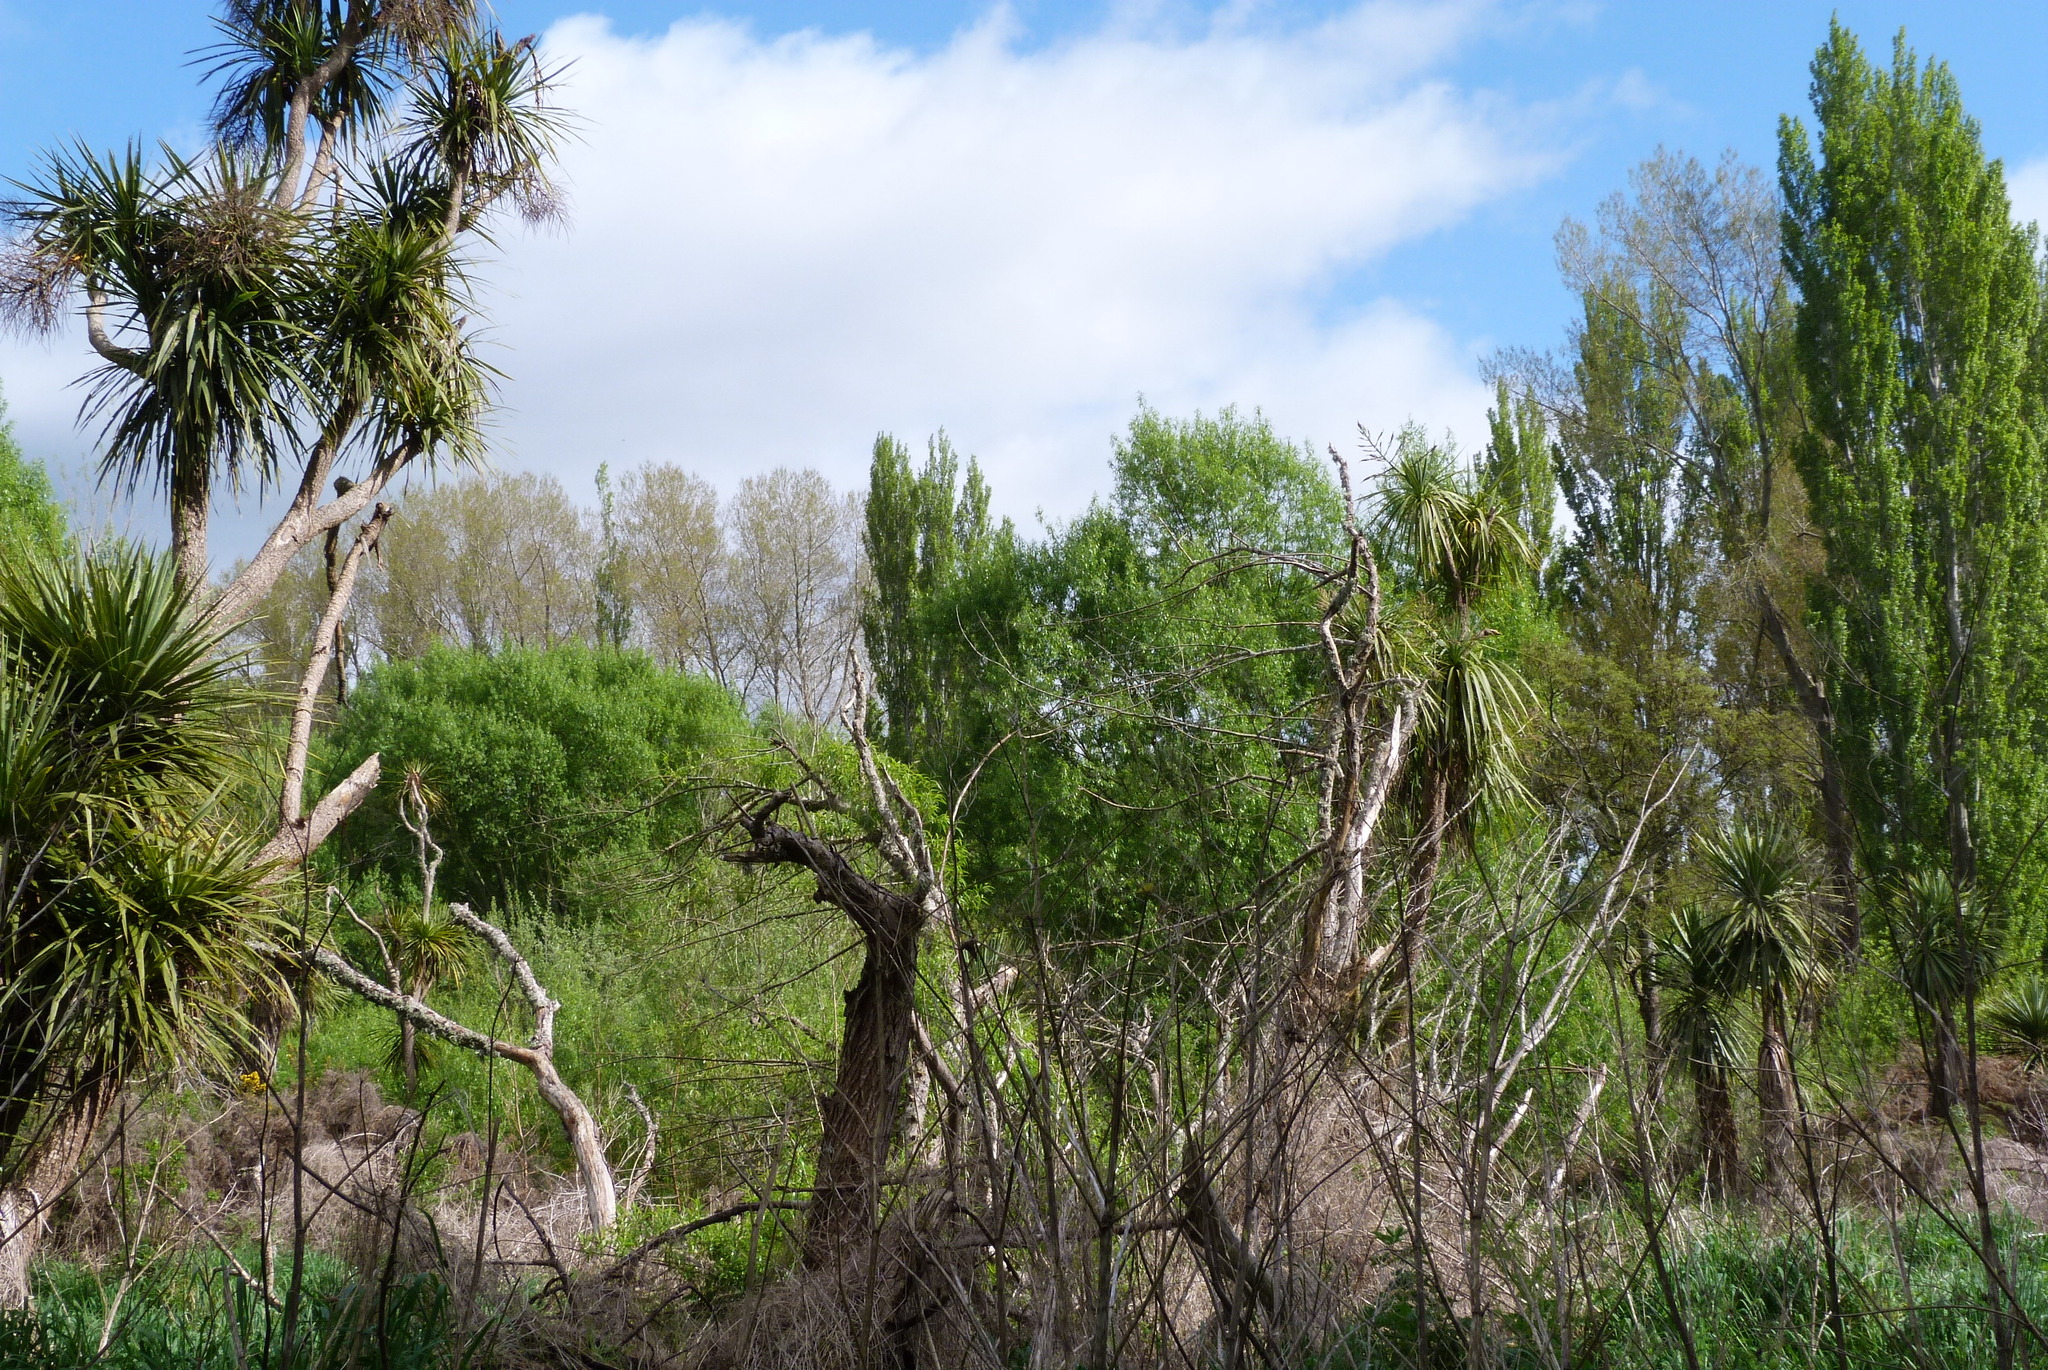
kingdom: Plantae
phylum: Tracheophyta
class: Liliopsida
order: Asparagales
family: Asparagaceae
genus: Cordyline
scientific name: Cordyline australis
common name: Cabbage-palm
